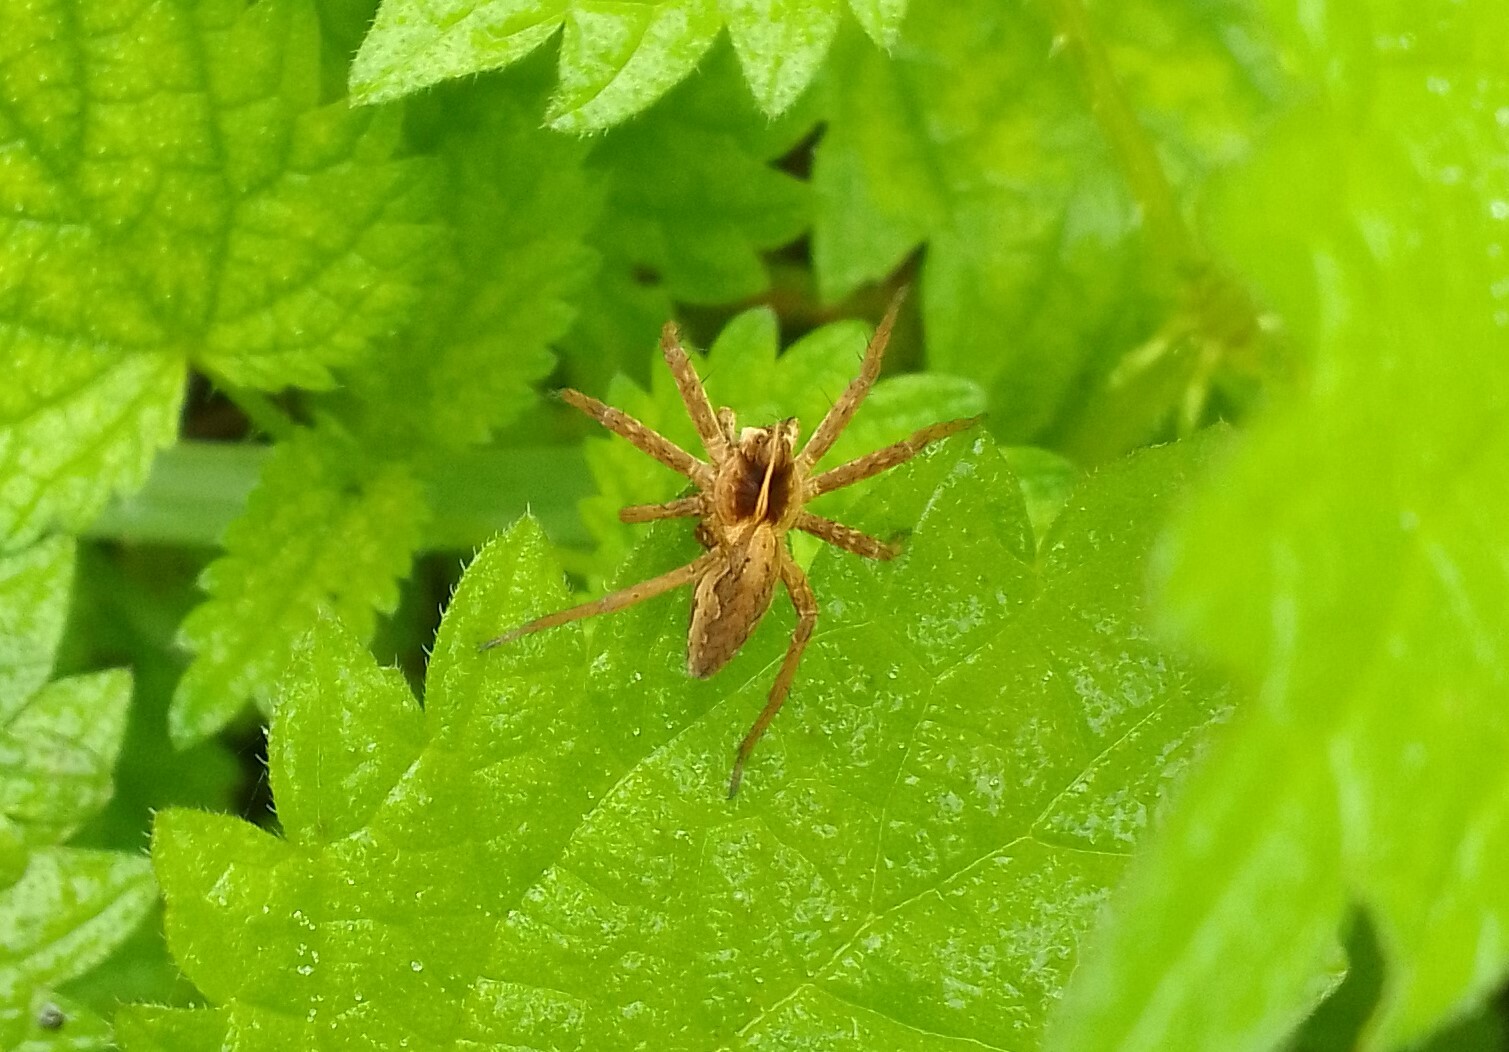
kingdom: Animalia
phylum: Arthropoda
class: Arachnida
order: Araneae
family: Pisauridae
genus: Pisaura
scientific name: Pisaura mirabilis
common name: Tent spider
